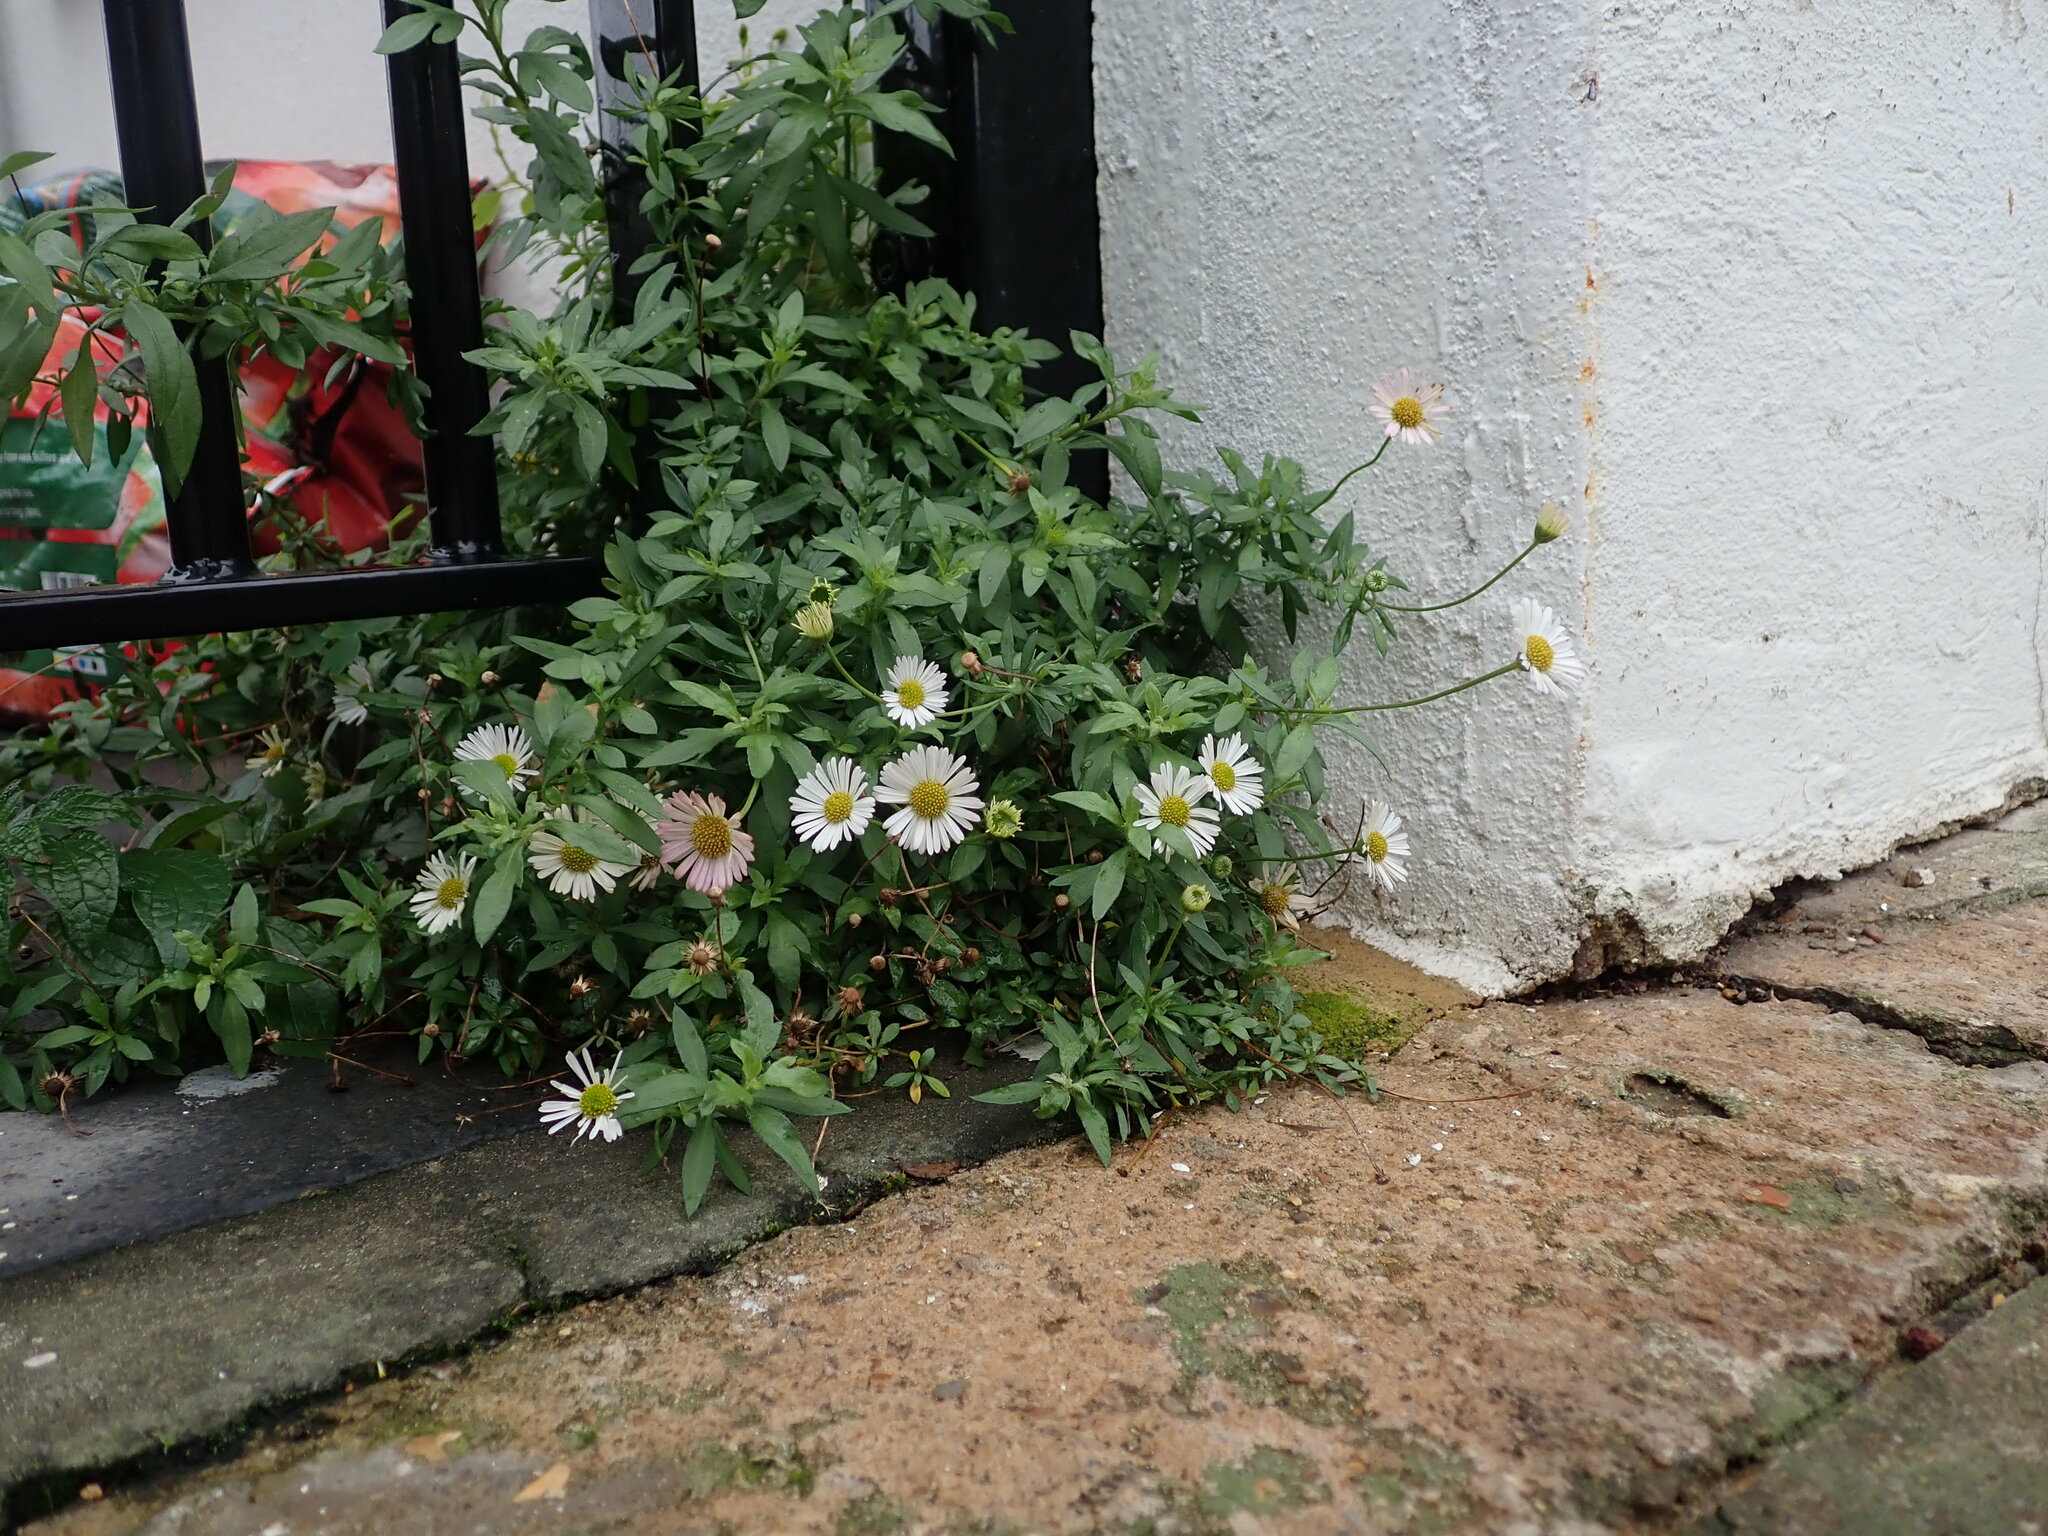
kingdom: Plantae
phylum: Tracheophyta
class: Magnoliopsida
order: Asterales
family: Asteraceae
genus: Erigeron
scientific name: Erigeron karvinskianus
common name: Mexican fleabane
